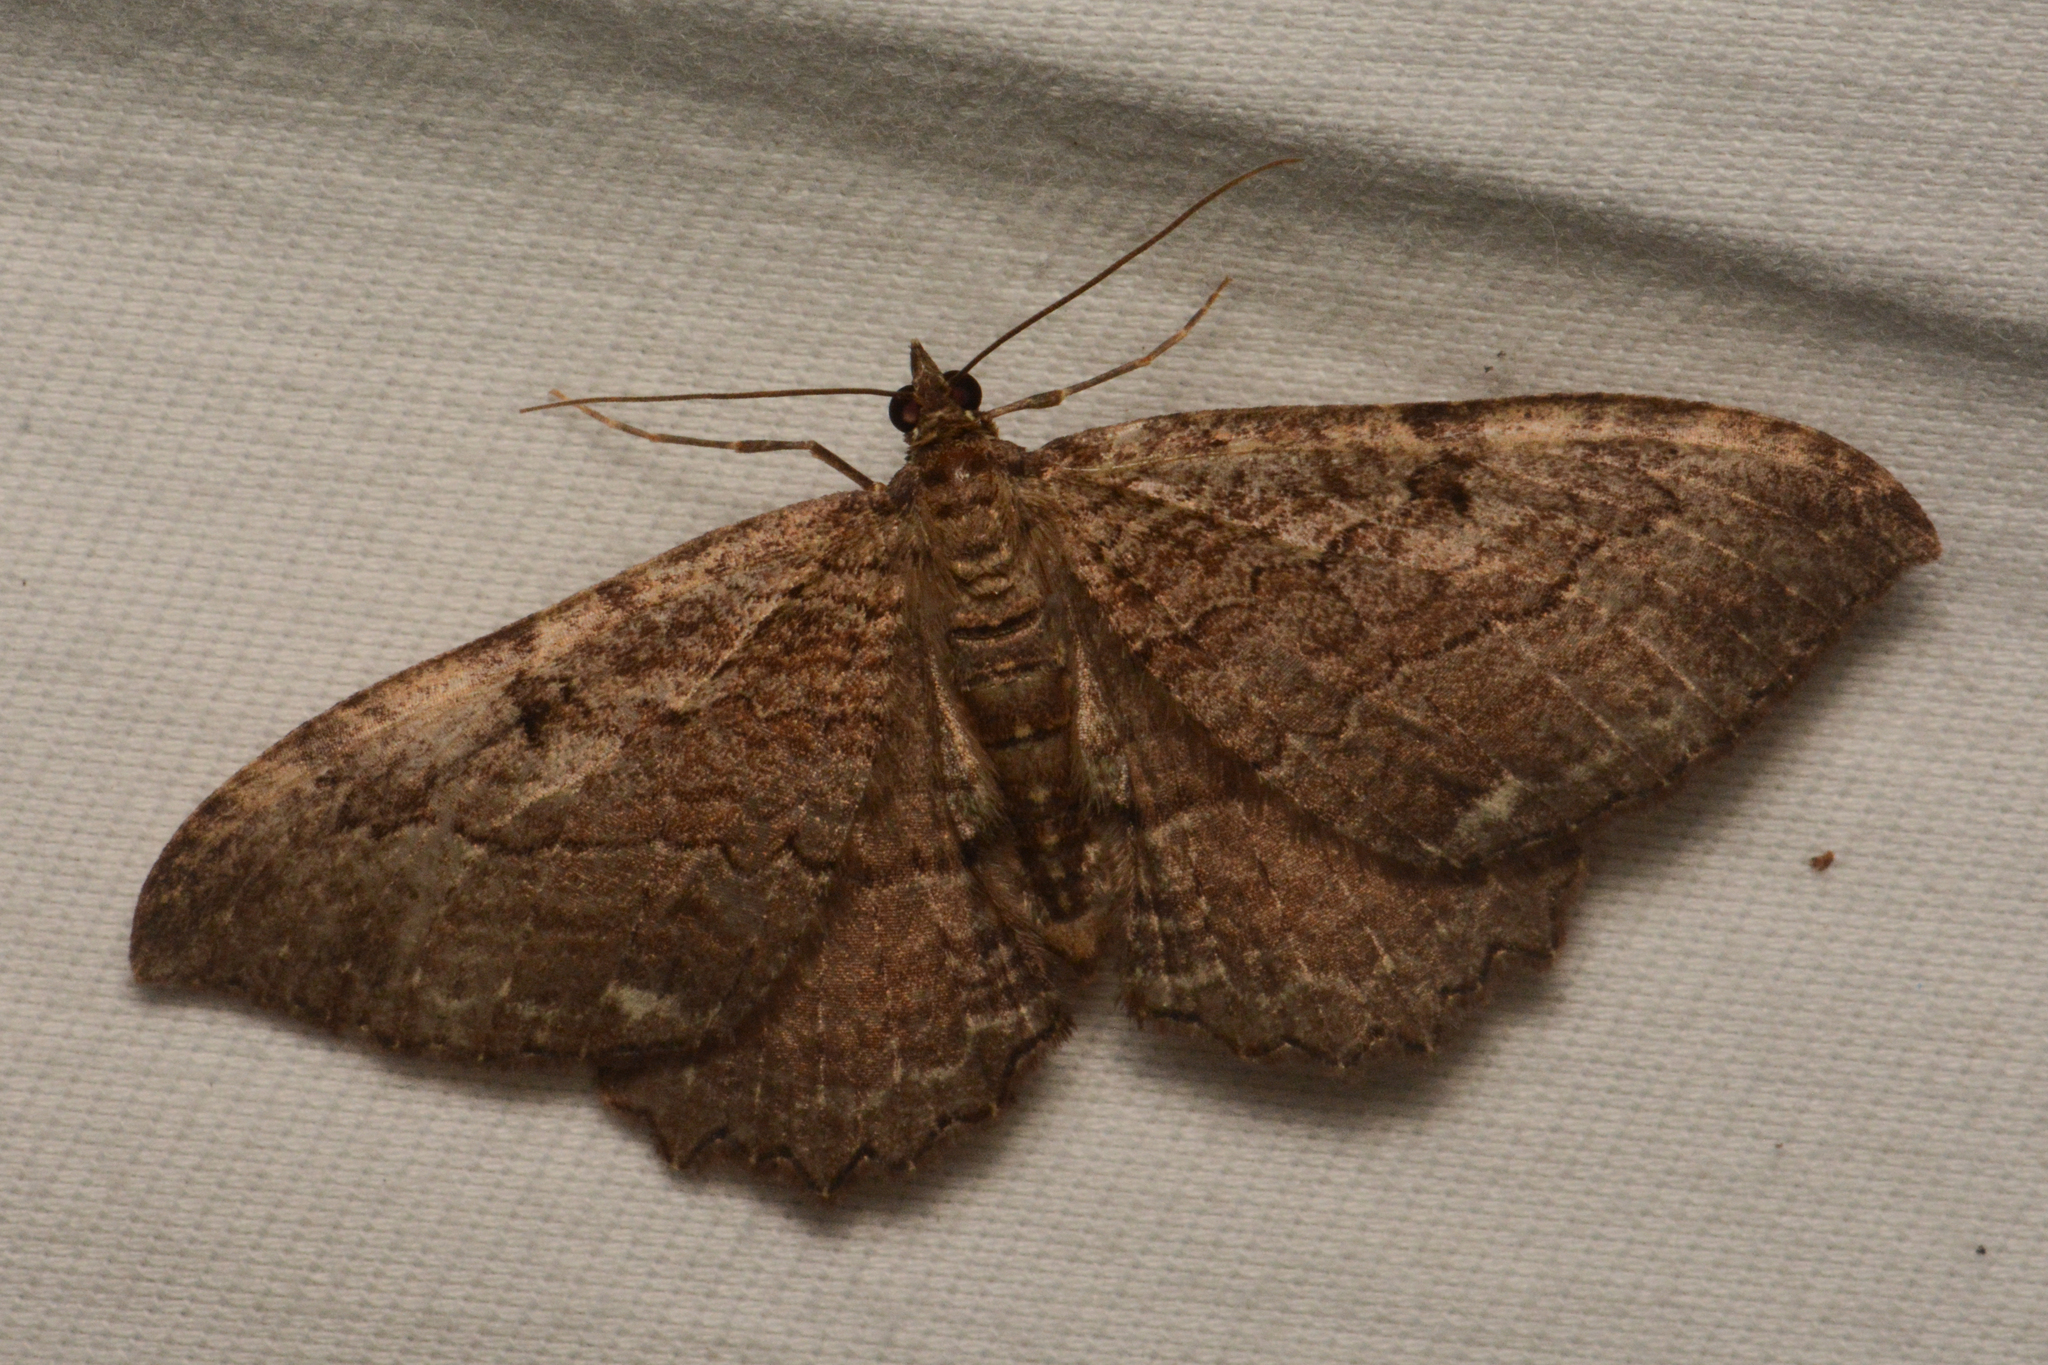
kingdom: Animalia
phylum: Arthropoda
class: Insecta
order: Lepidoptera
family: Geometridae
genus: Rheumaptera
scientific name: Rheumaptera
